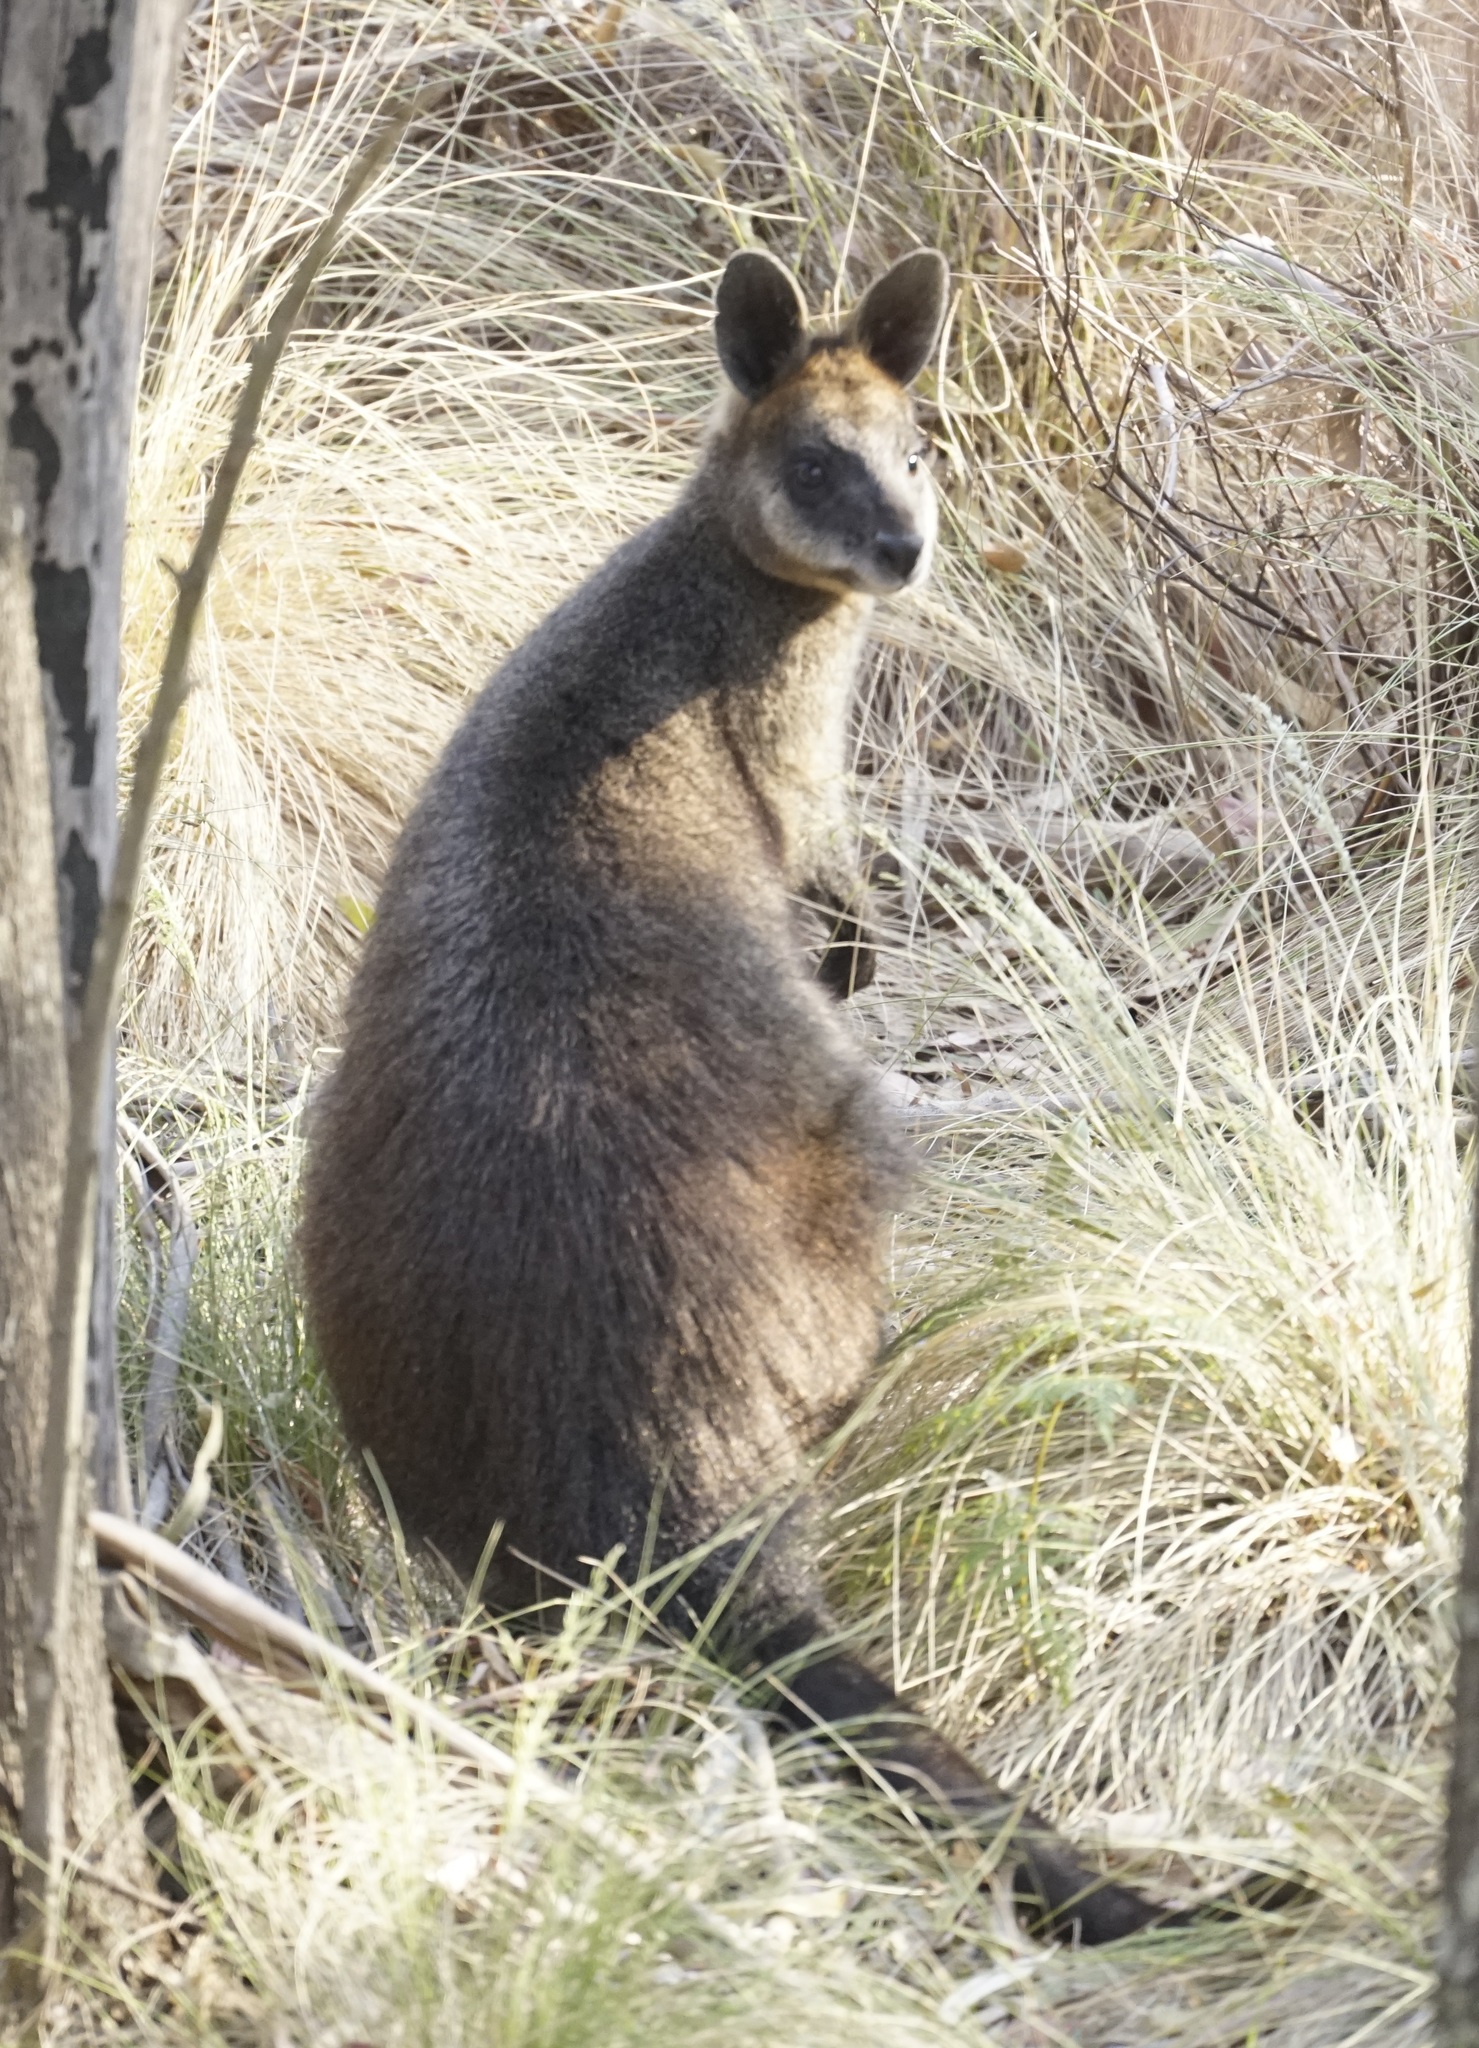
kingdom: Animalia
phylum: Chordata
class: Mammalia
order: Diprotodontia
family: Macropodidae
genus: Wallabia
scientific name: Wallabia bicolor
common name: Swamp wallaby
